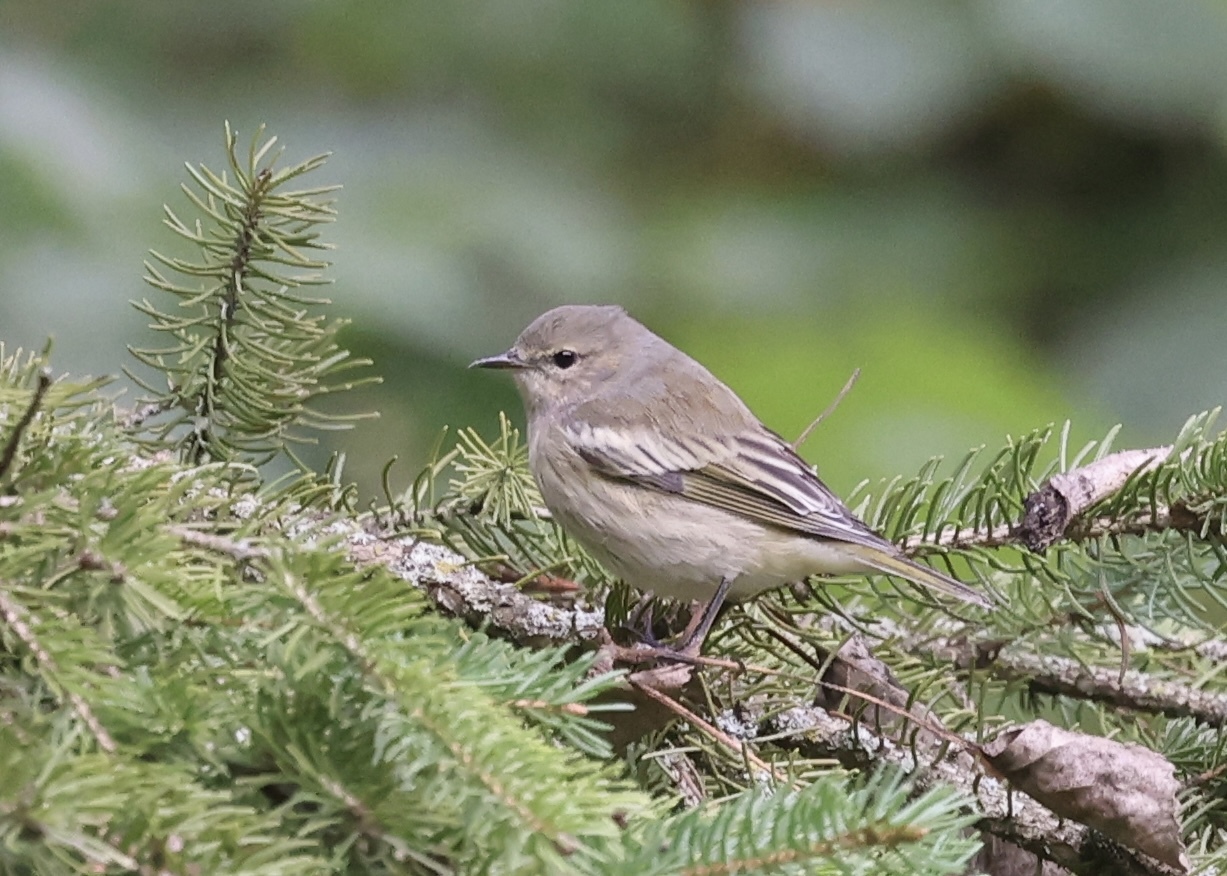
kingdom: Animalia
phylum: Chordata
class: Aves
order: Passeriformes
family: Parulidae
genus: Setophaga
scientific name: Setophaga tigrina
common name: Cape may warbler
